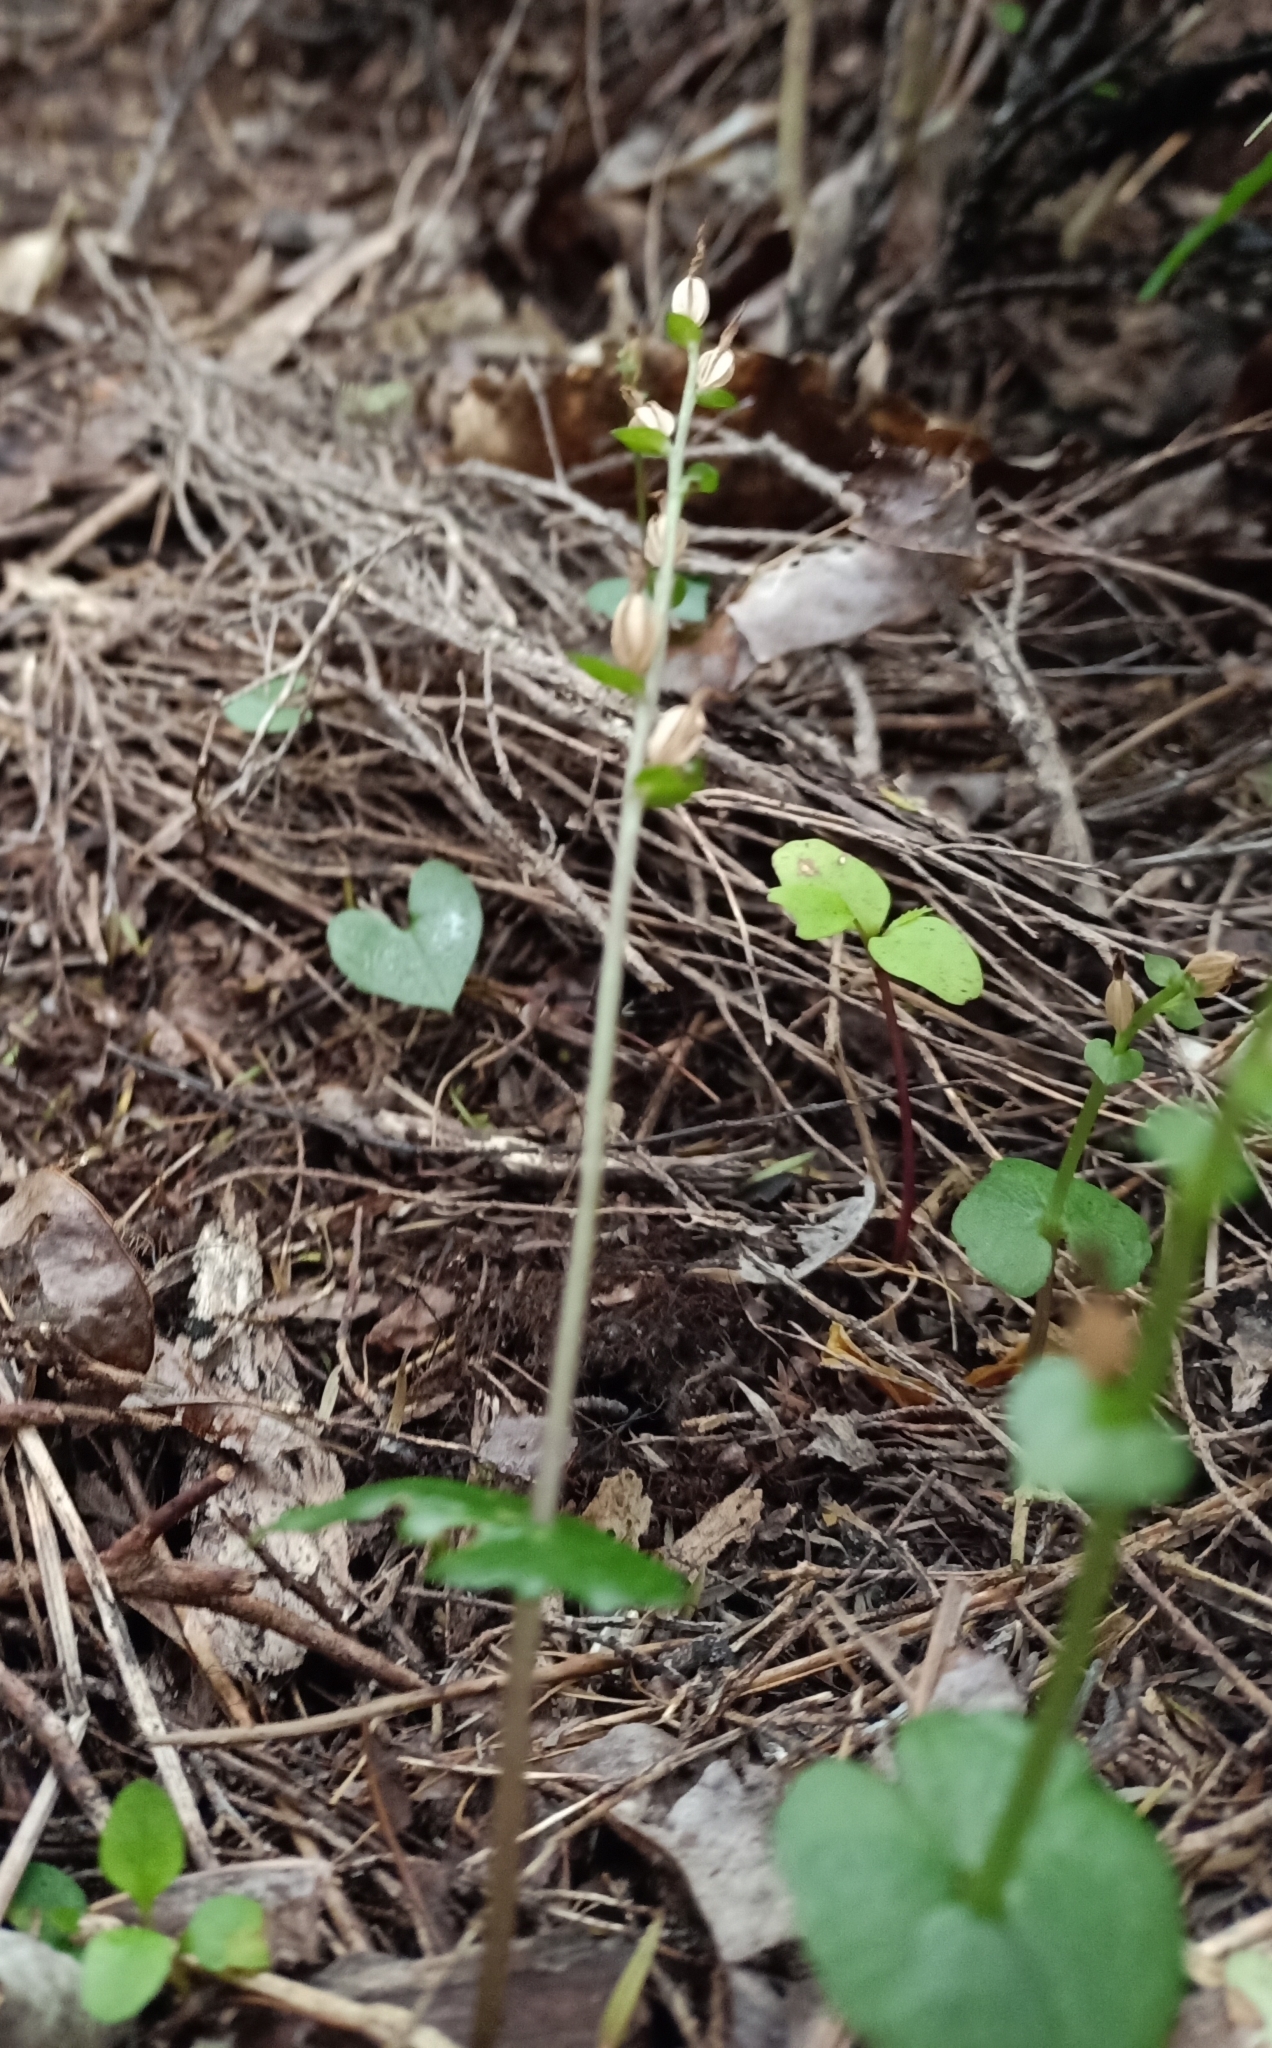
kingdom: Plantae
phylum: Tracheophyta
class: Liliopsida
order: Asparagales
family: Orchidaceae
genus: Acianthus
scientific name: Acianthus sinclairii
